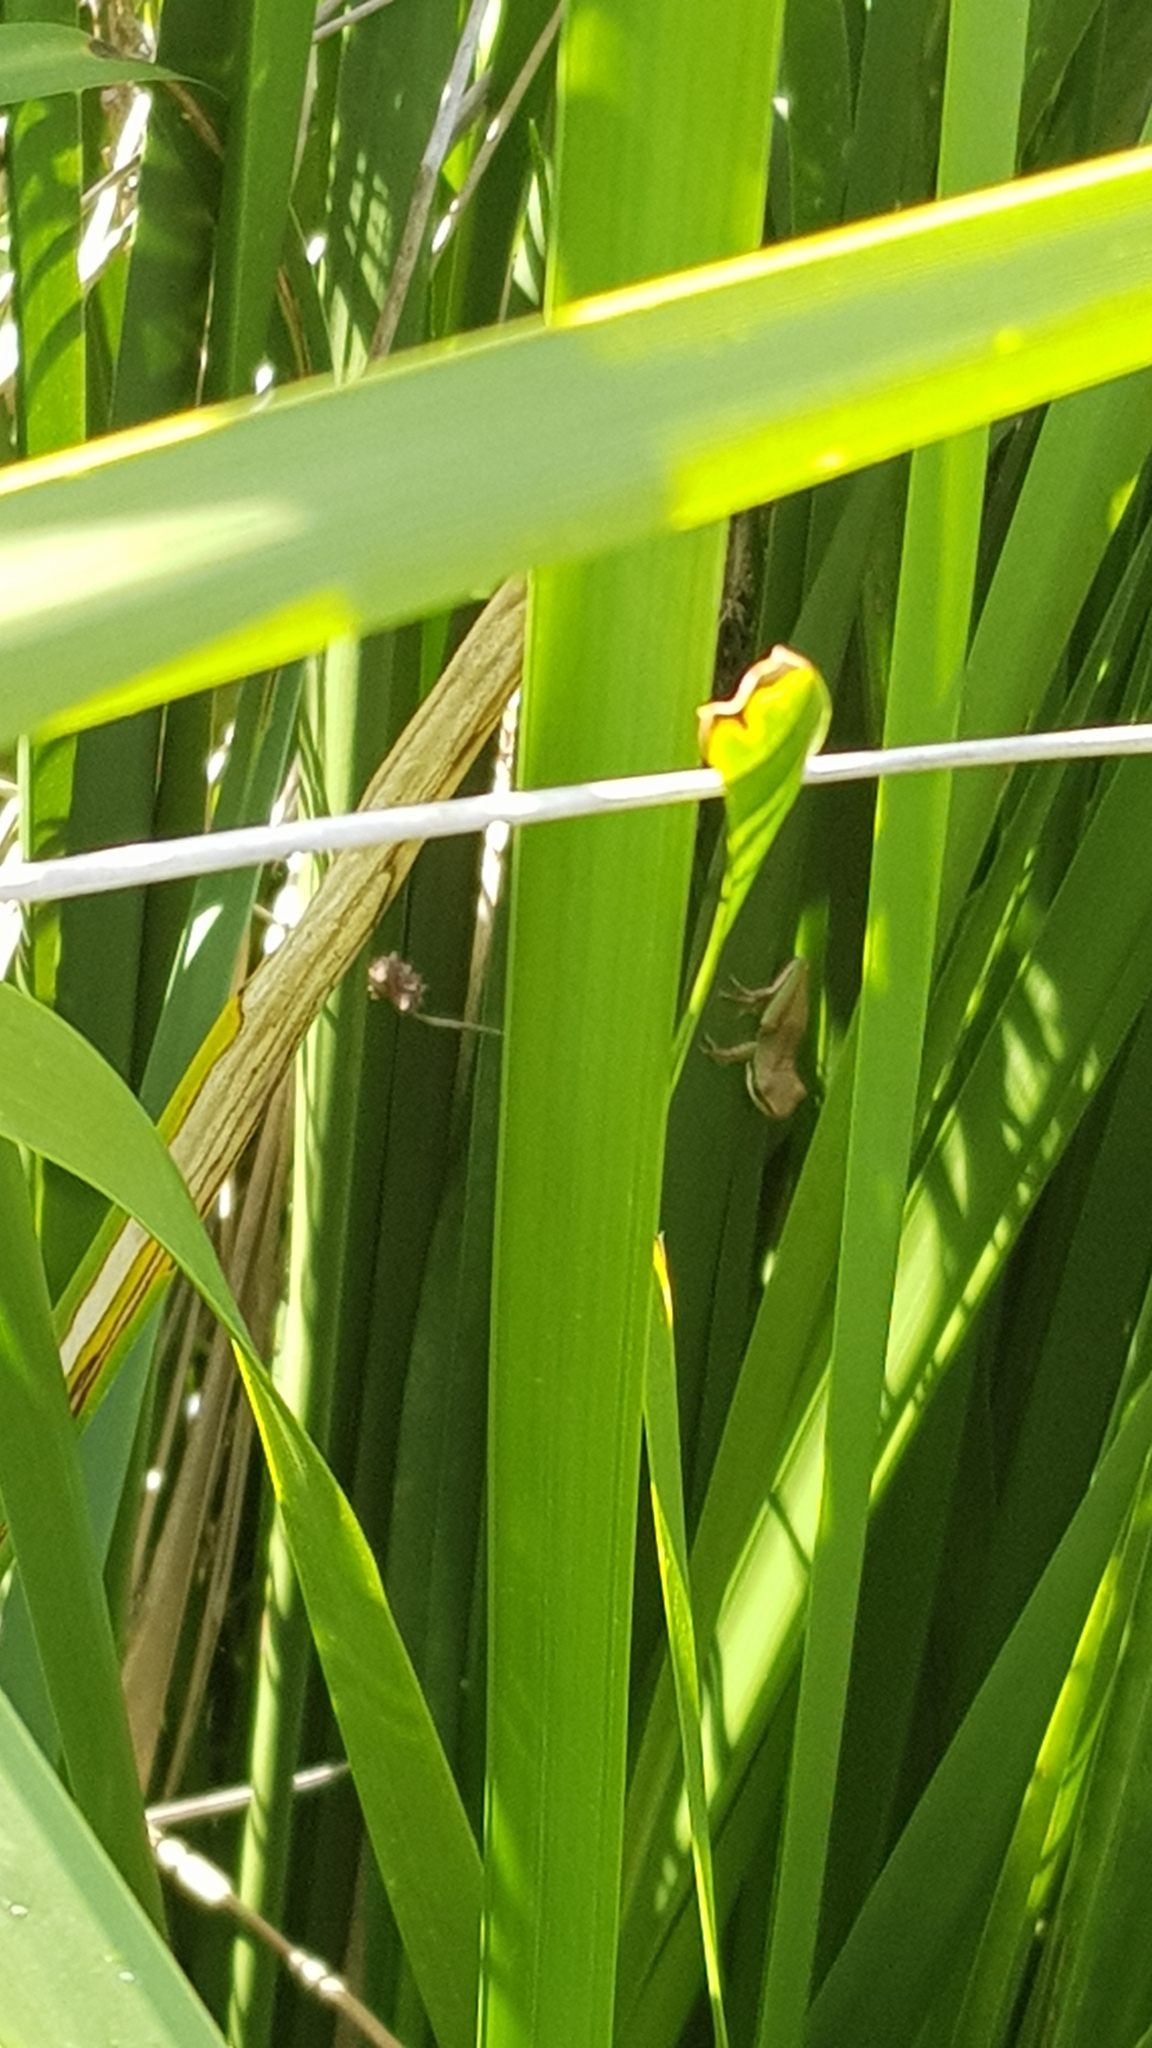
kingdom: Animalia
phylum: Chordata
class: Amphibia
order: Anura
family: Pelodryadidae
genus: Litoria
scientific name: Litoria fallax
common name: Eastern dwarf treefrog
